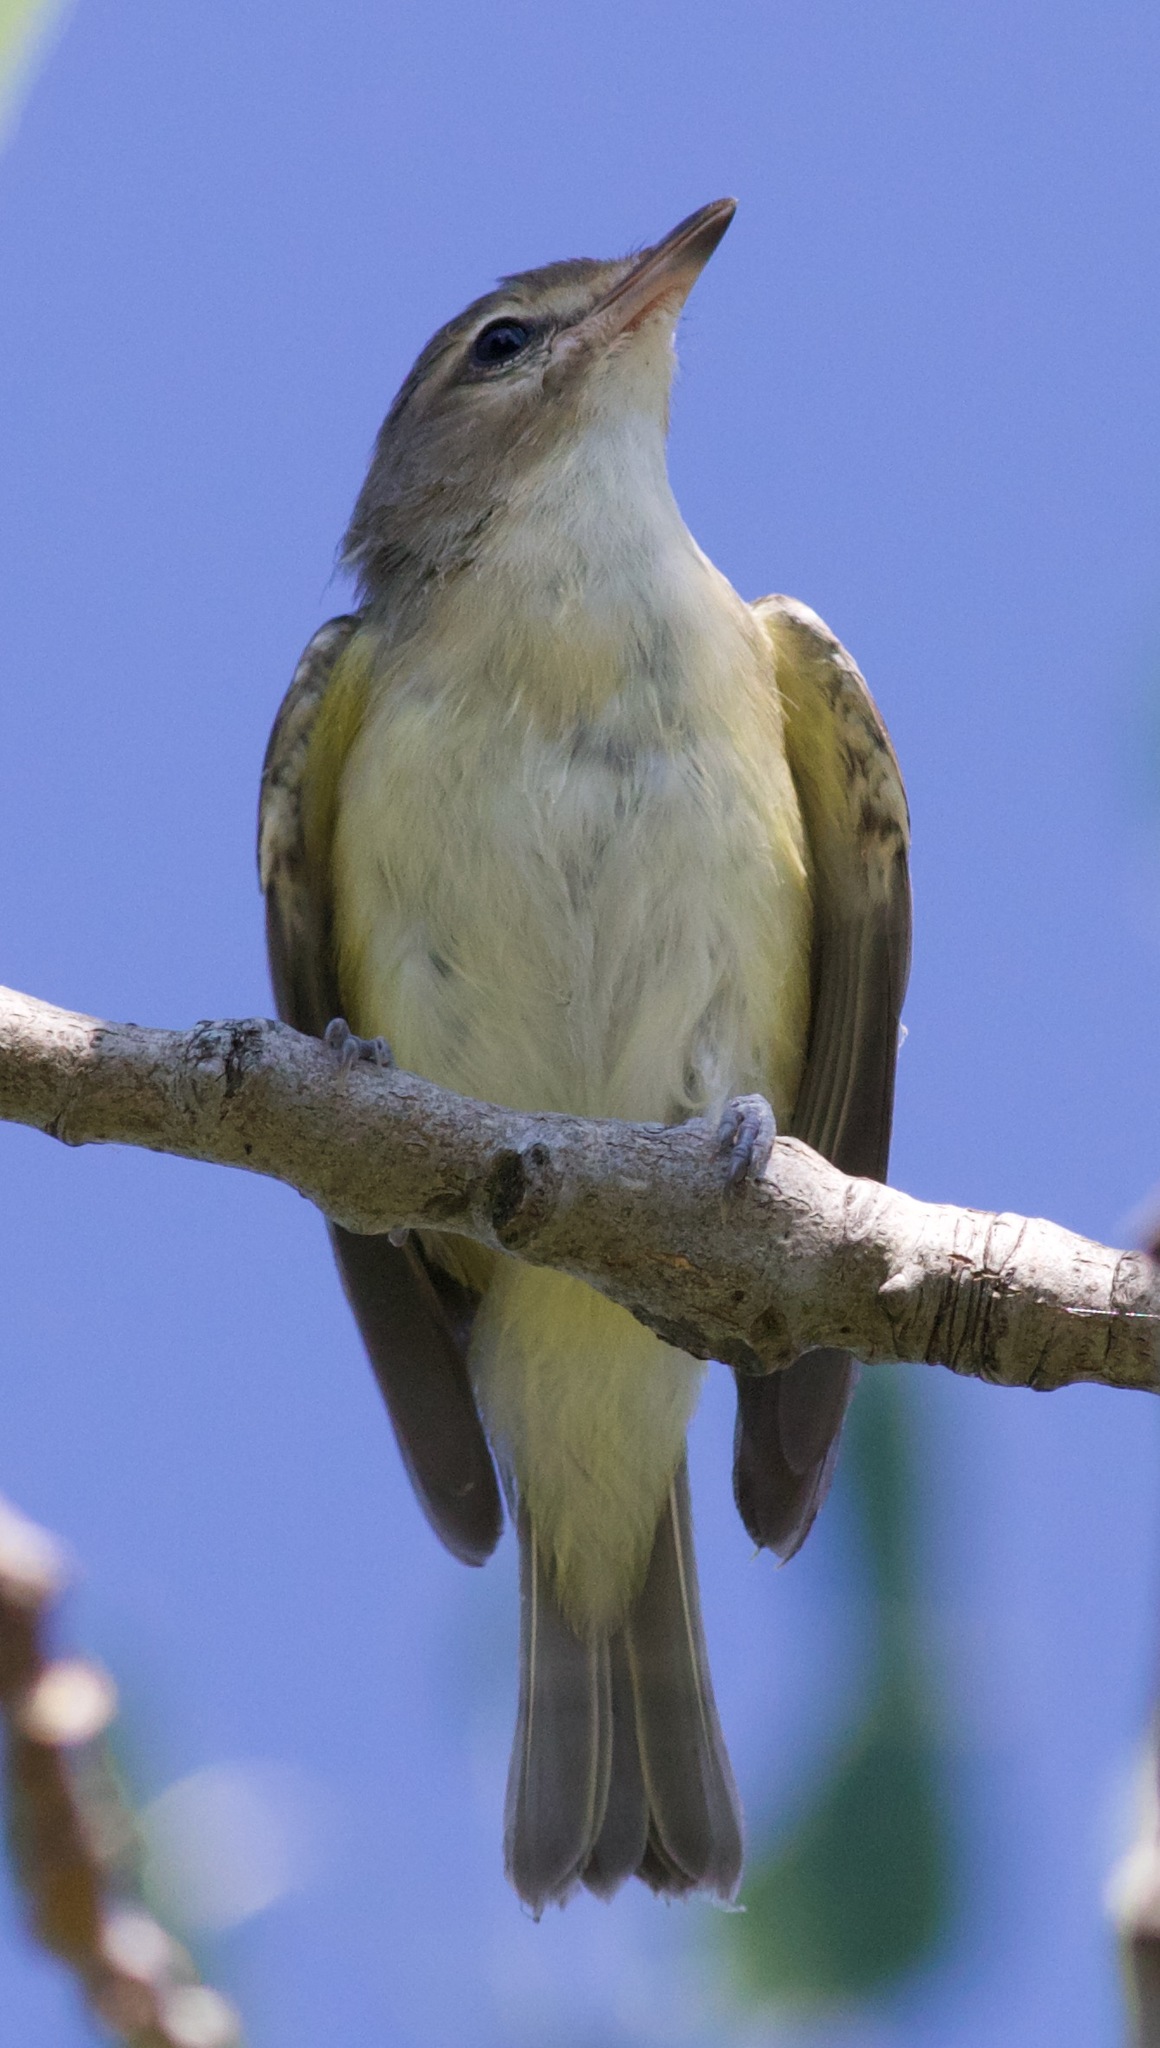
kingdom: Animalia
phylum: Chordata
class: Aves
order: Passeriformes
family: Vireonidae
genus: Vireo
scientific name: Vireo gilvus
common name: Warbling vireo
